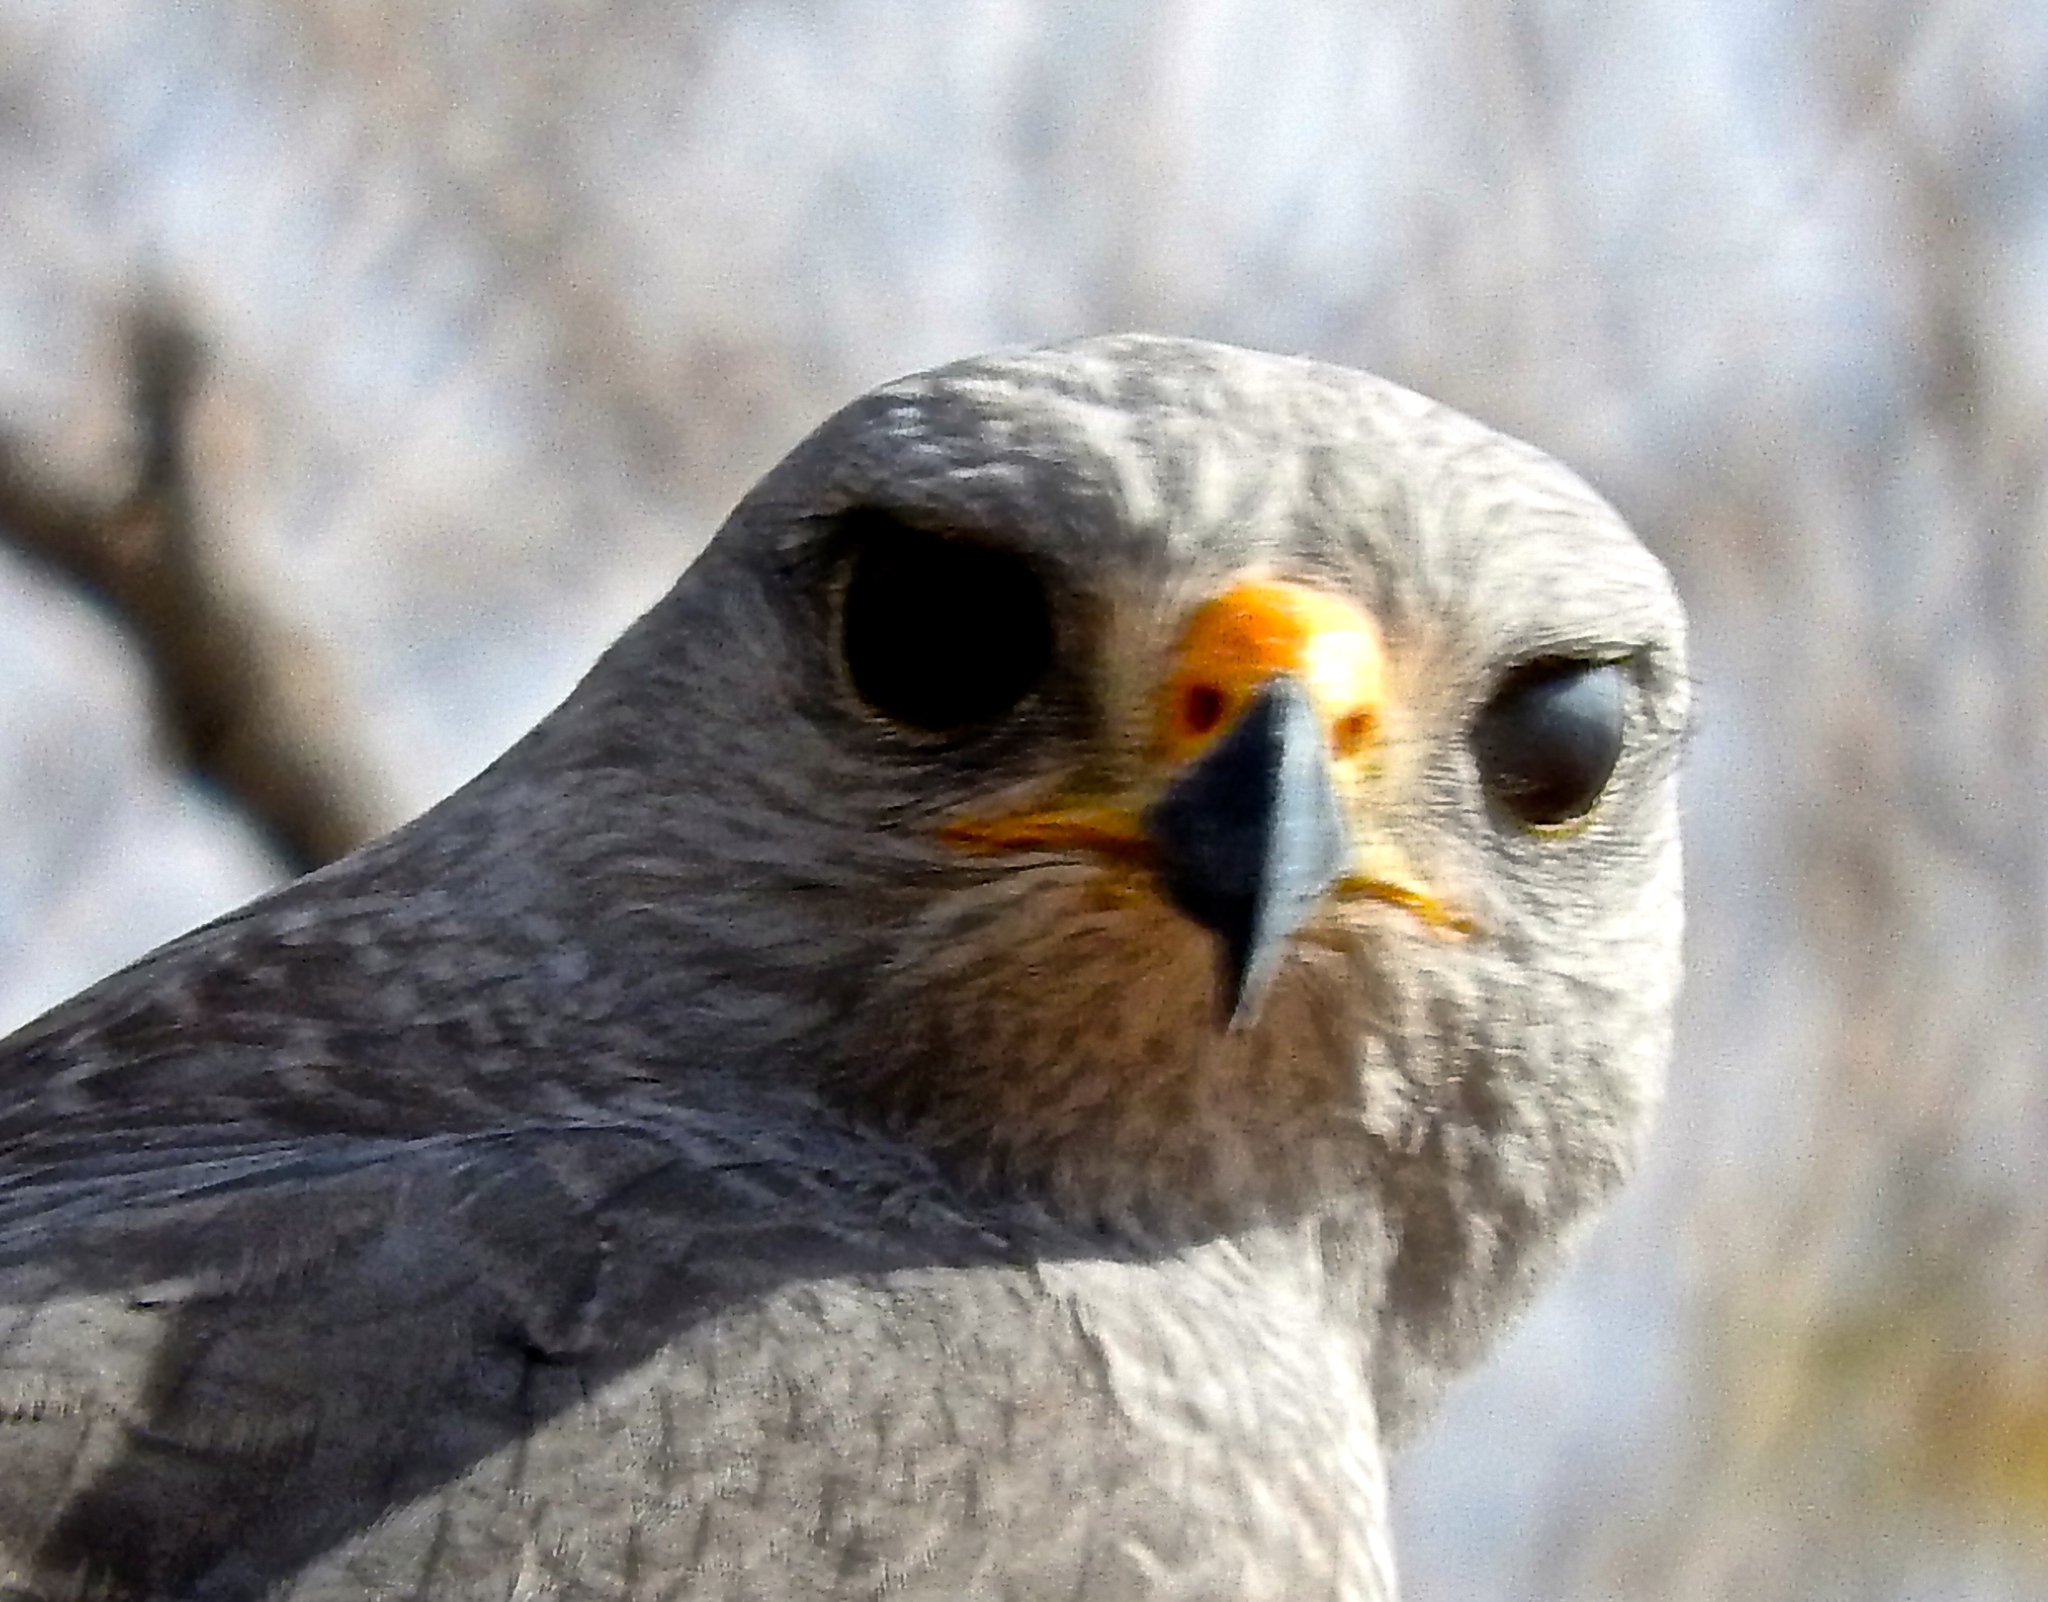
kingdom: Animalia
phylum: Chordata
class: Aves
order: Accipitriformes
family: Accipitridae
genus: Buteo
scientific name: Buteo nitidus
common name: Grey-lined hawk
